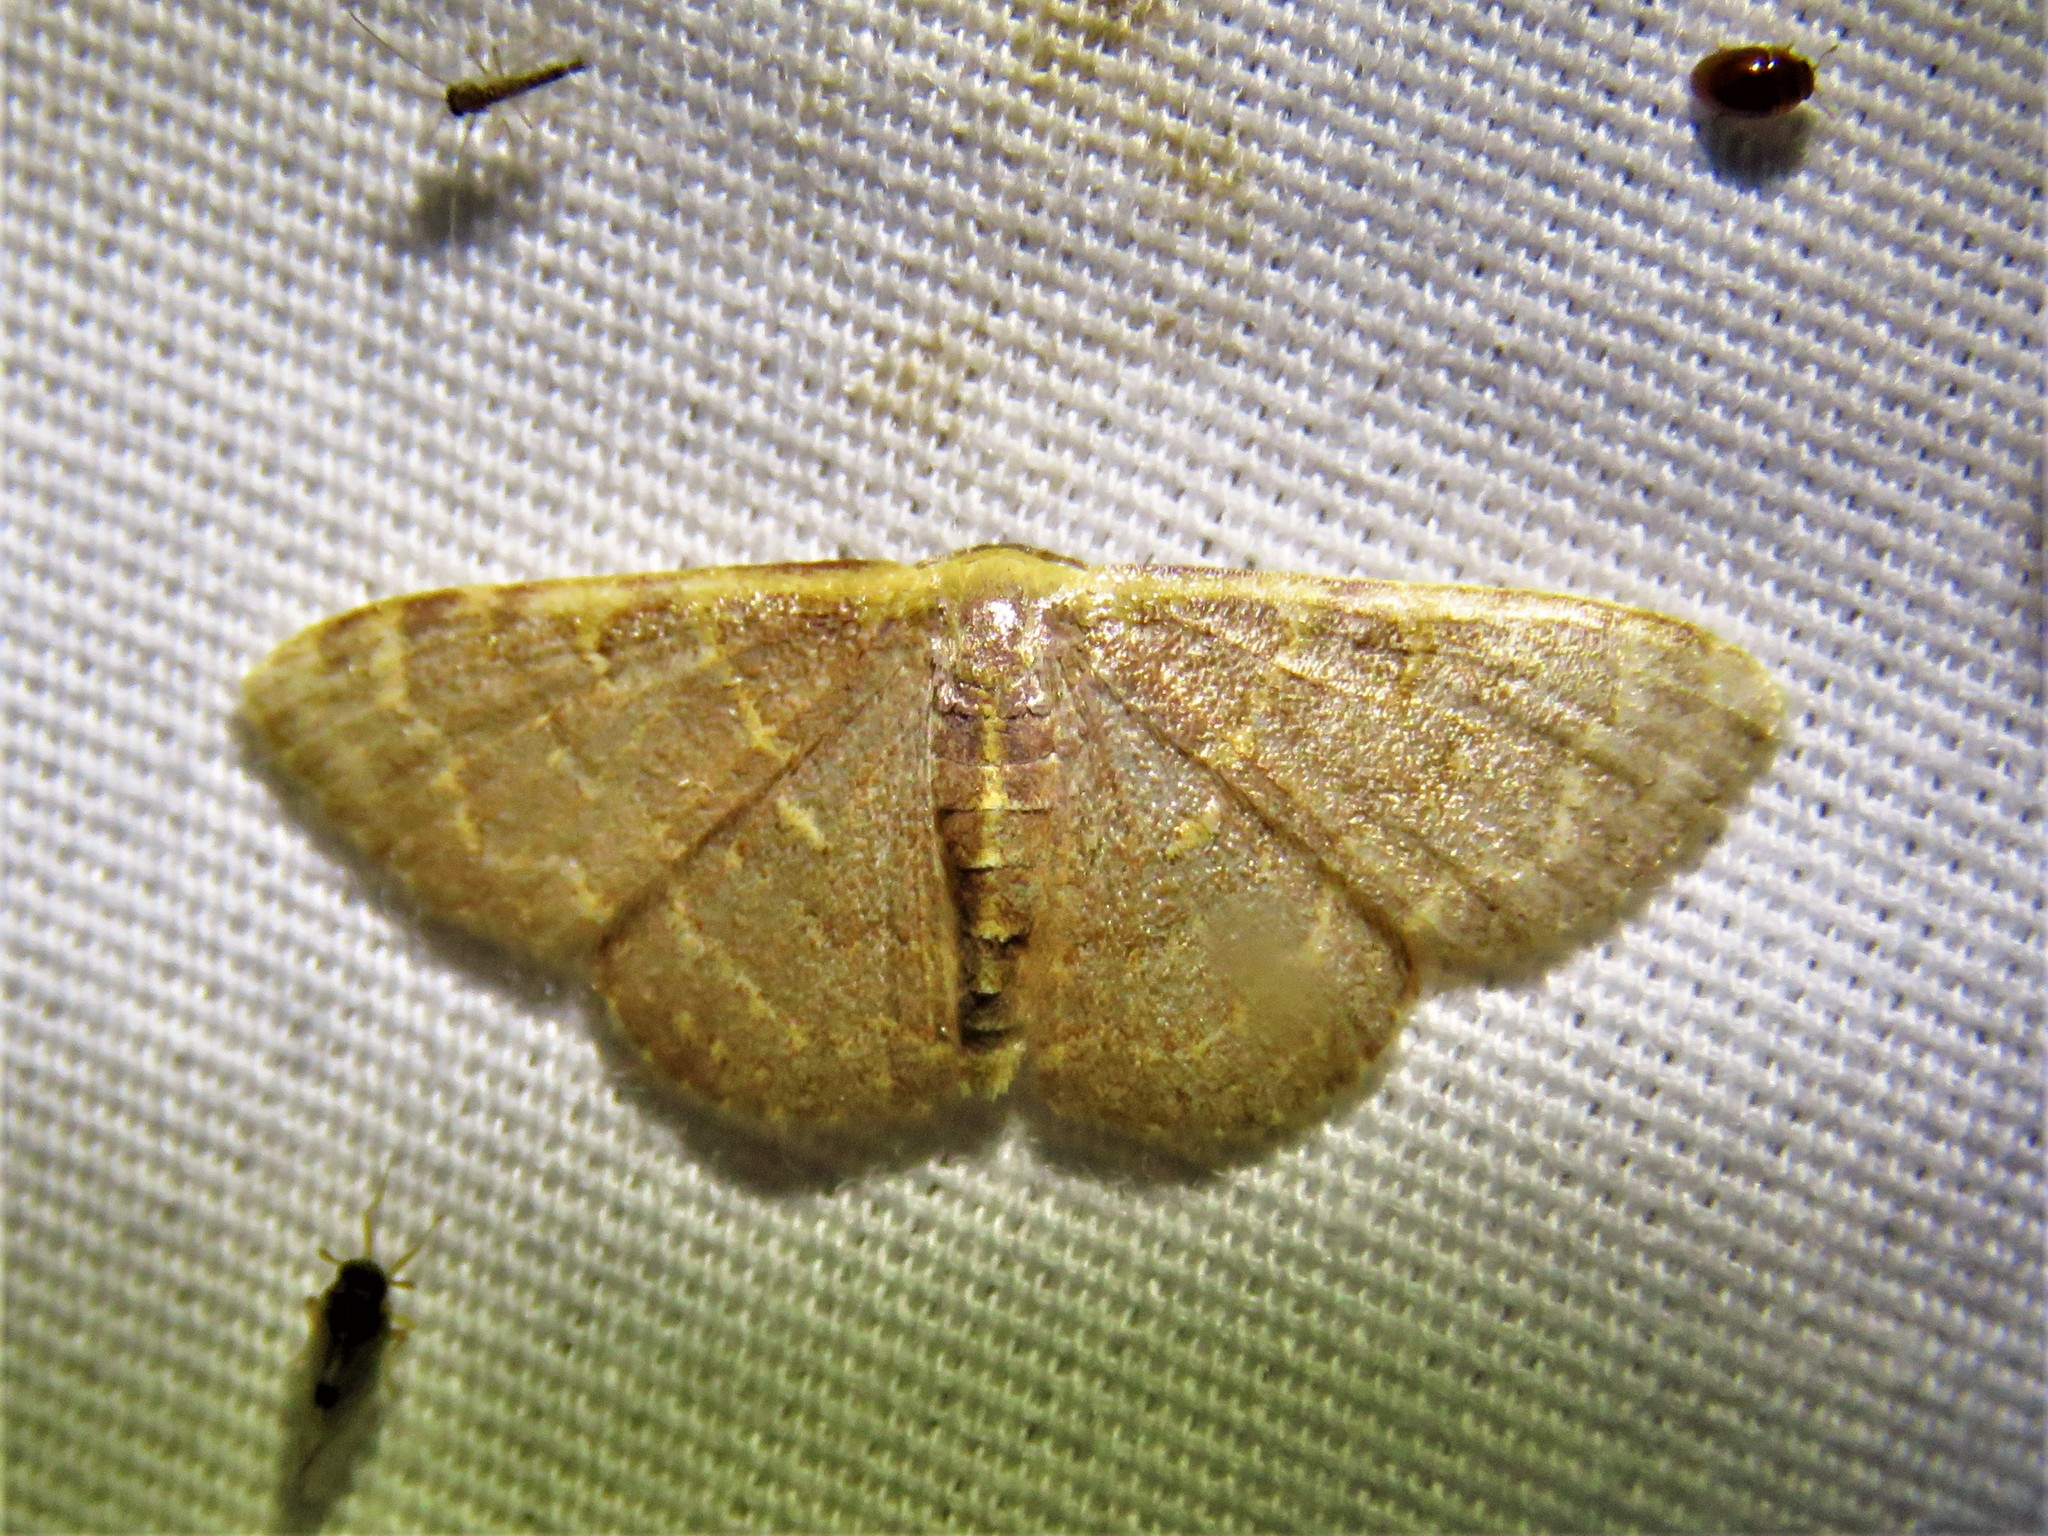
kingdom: Animalia
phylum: Arthropoda
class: Insecta
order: Lepidoptera
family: Geometridae
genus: Leptostales
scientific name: Leptostales pannaria
